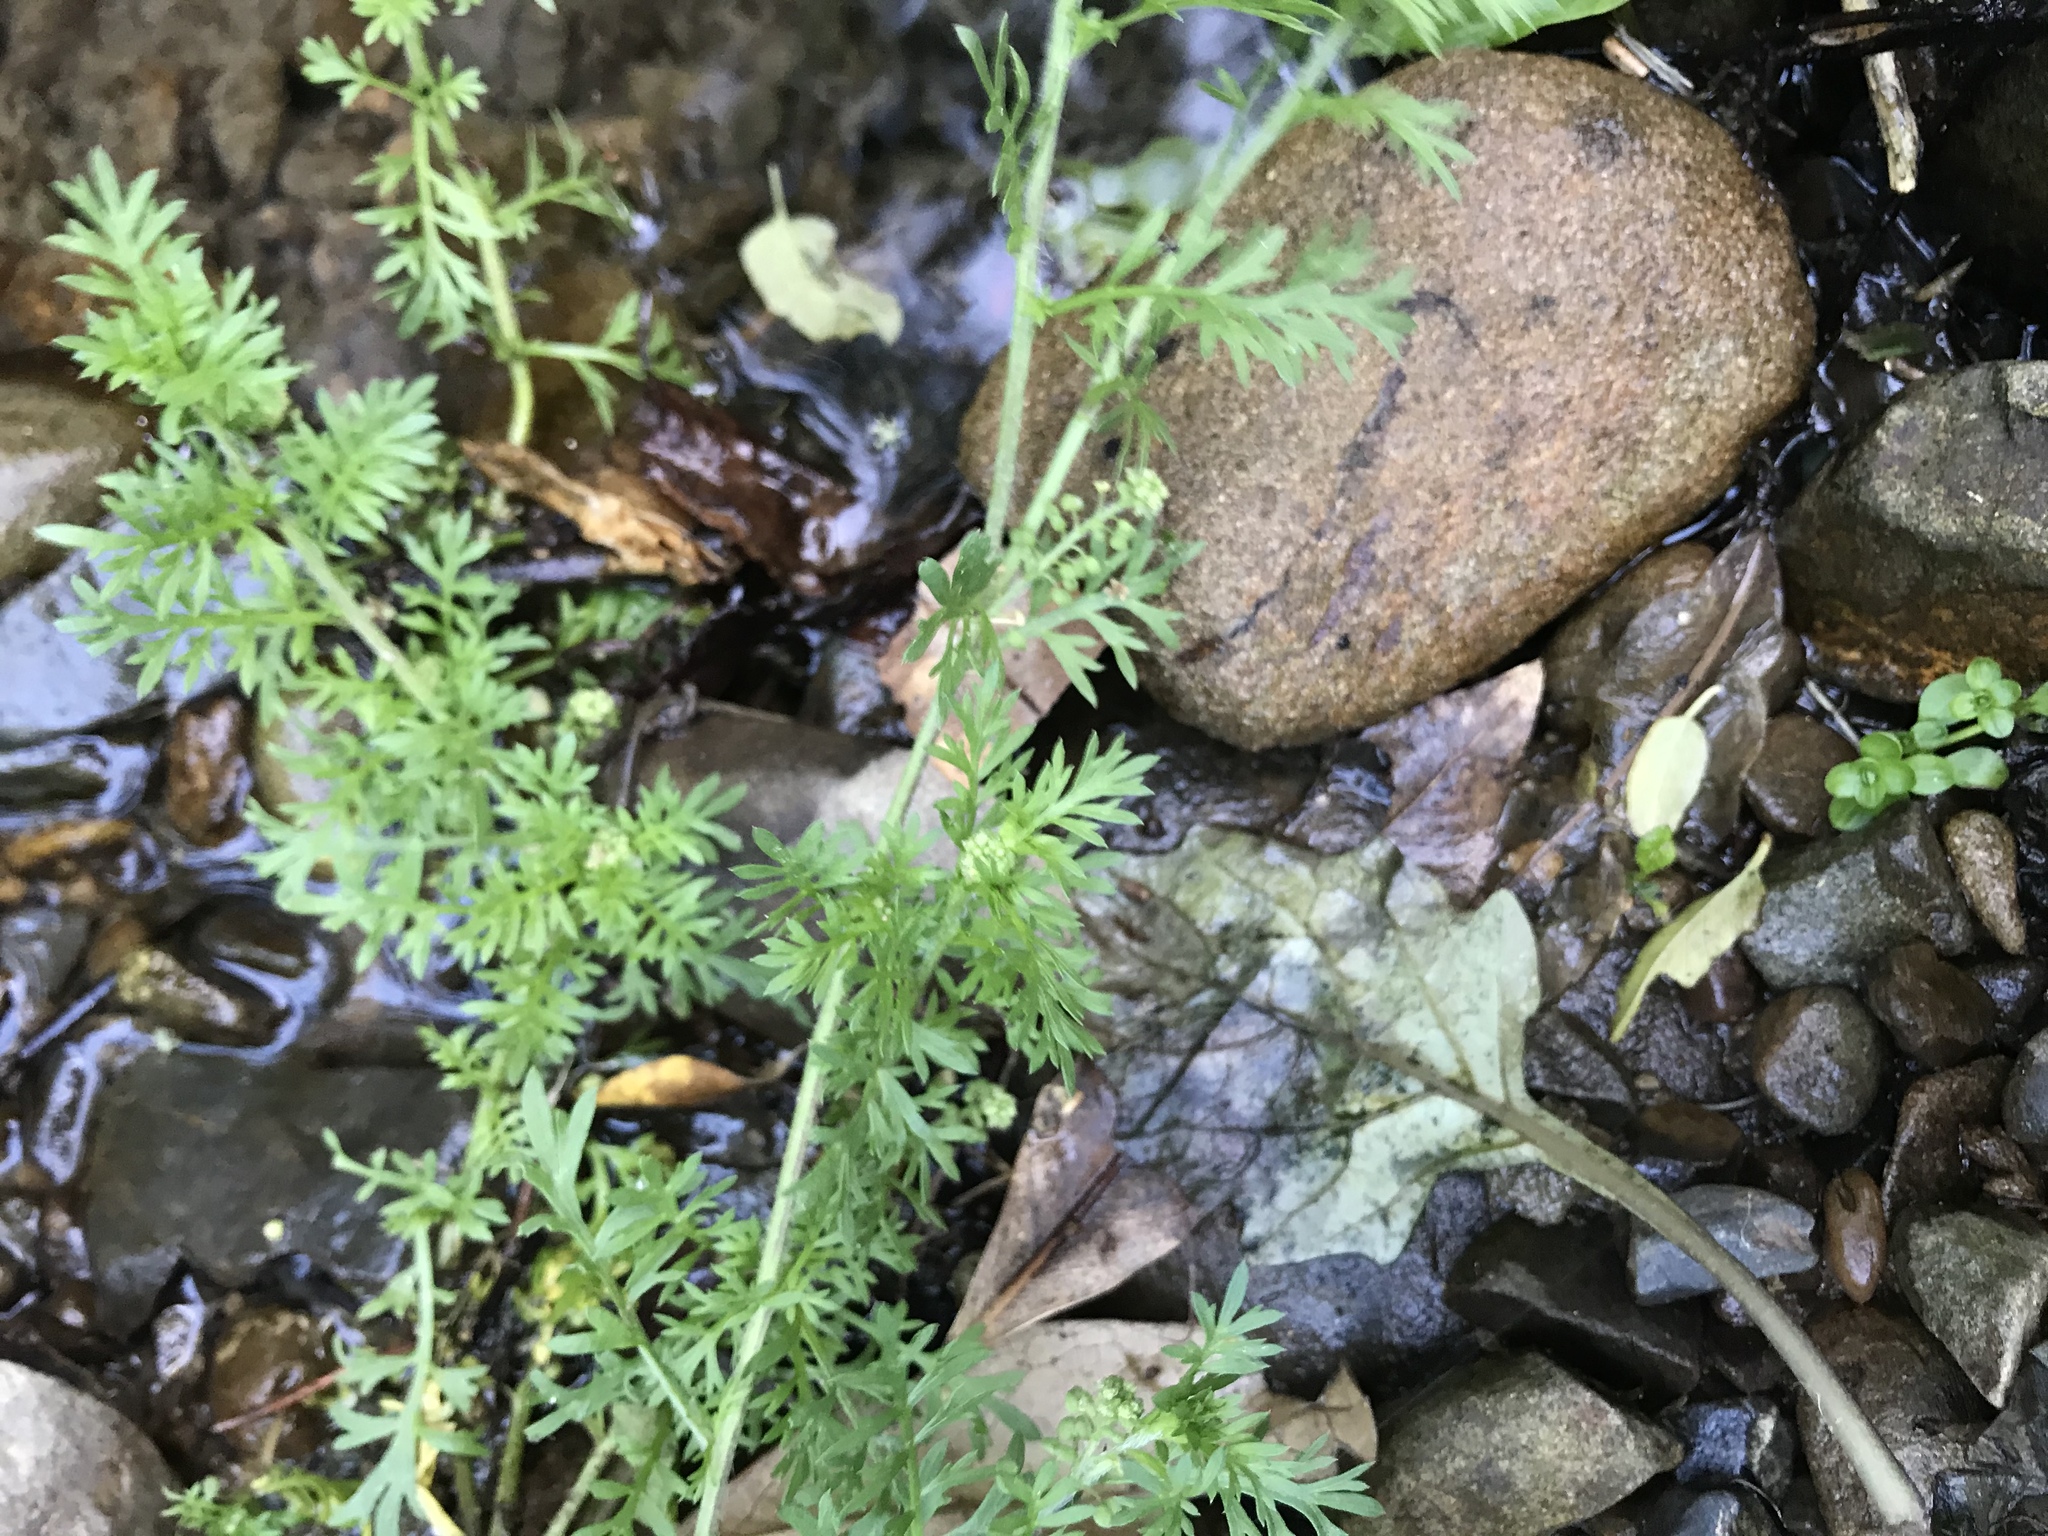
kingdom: Plantae
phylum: Tracheophyta
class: Magnoliopsida
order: Brassicales
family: Brassicaceae
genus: Lepidium
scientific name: Lepidium didymum
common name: Lesser swinecress
